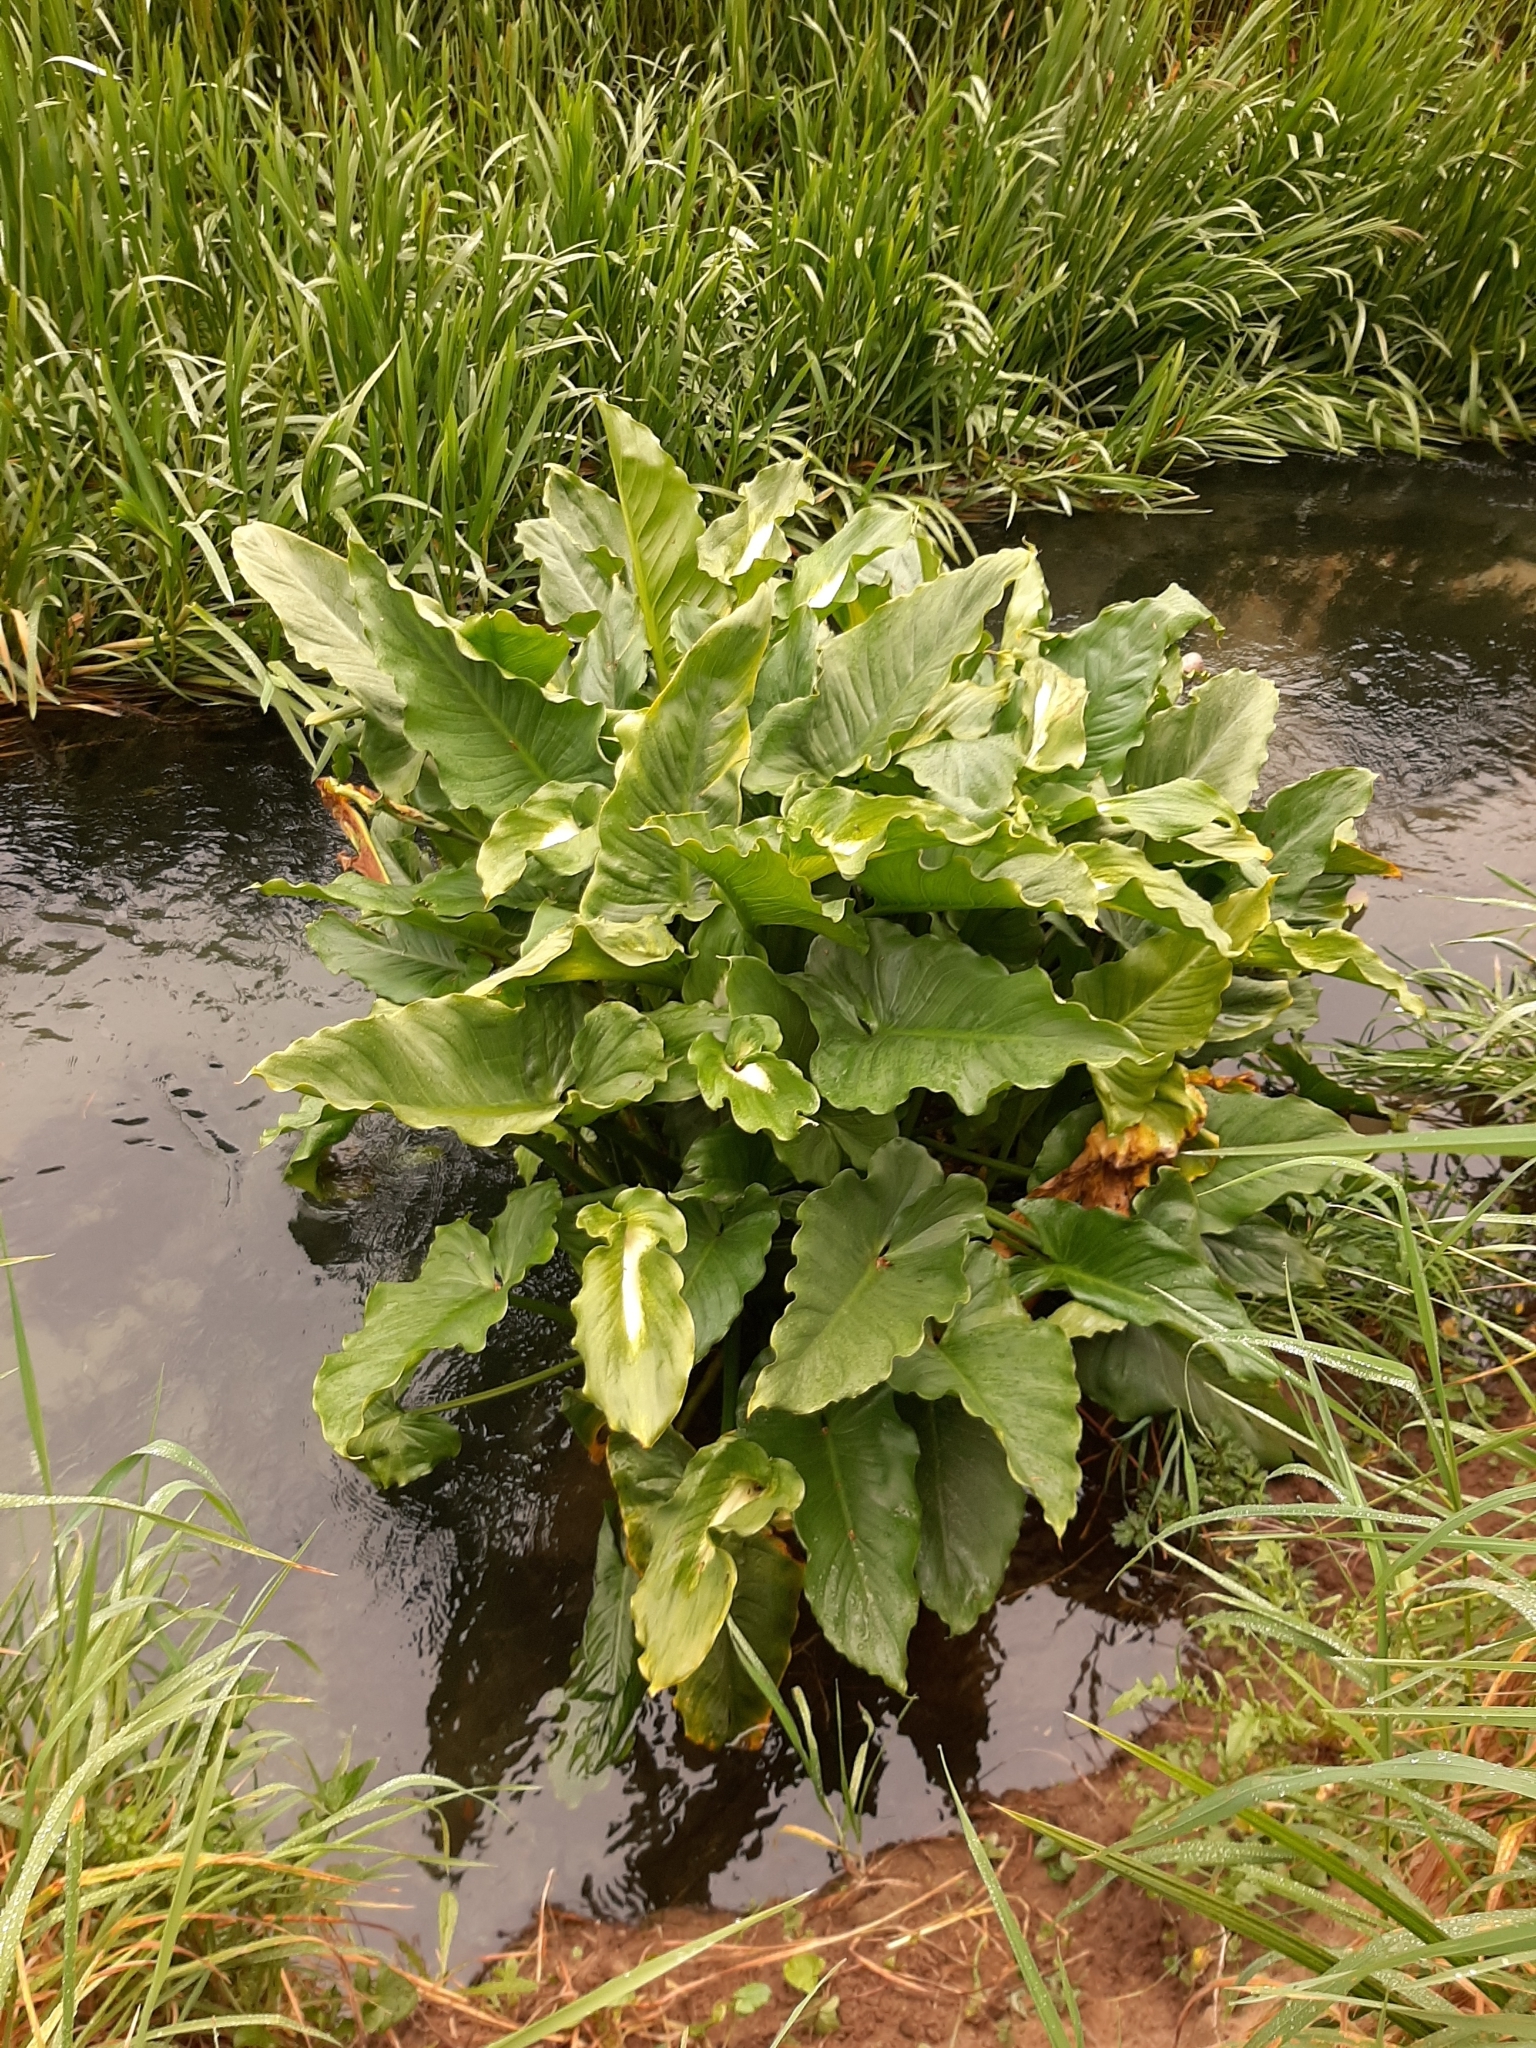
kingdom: Plantae
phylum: Tracheophyta
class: Liliopsida
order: Alismatales
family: Araceae
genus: Zantedeschia
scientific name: Zantedeschia aethiopica
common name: Altar-lily
